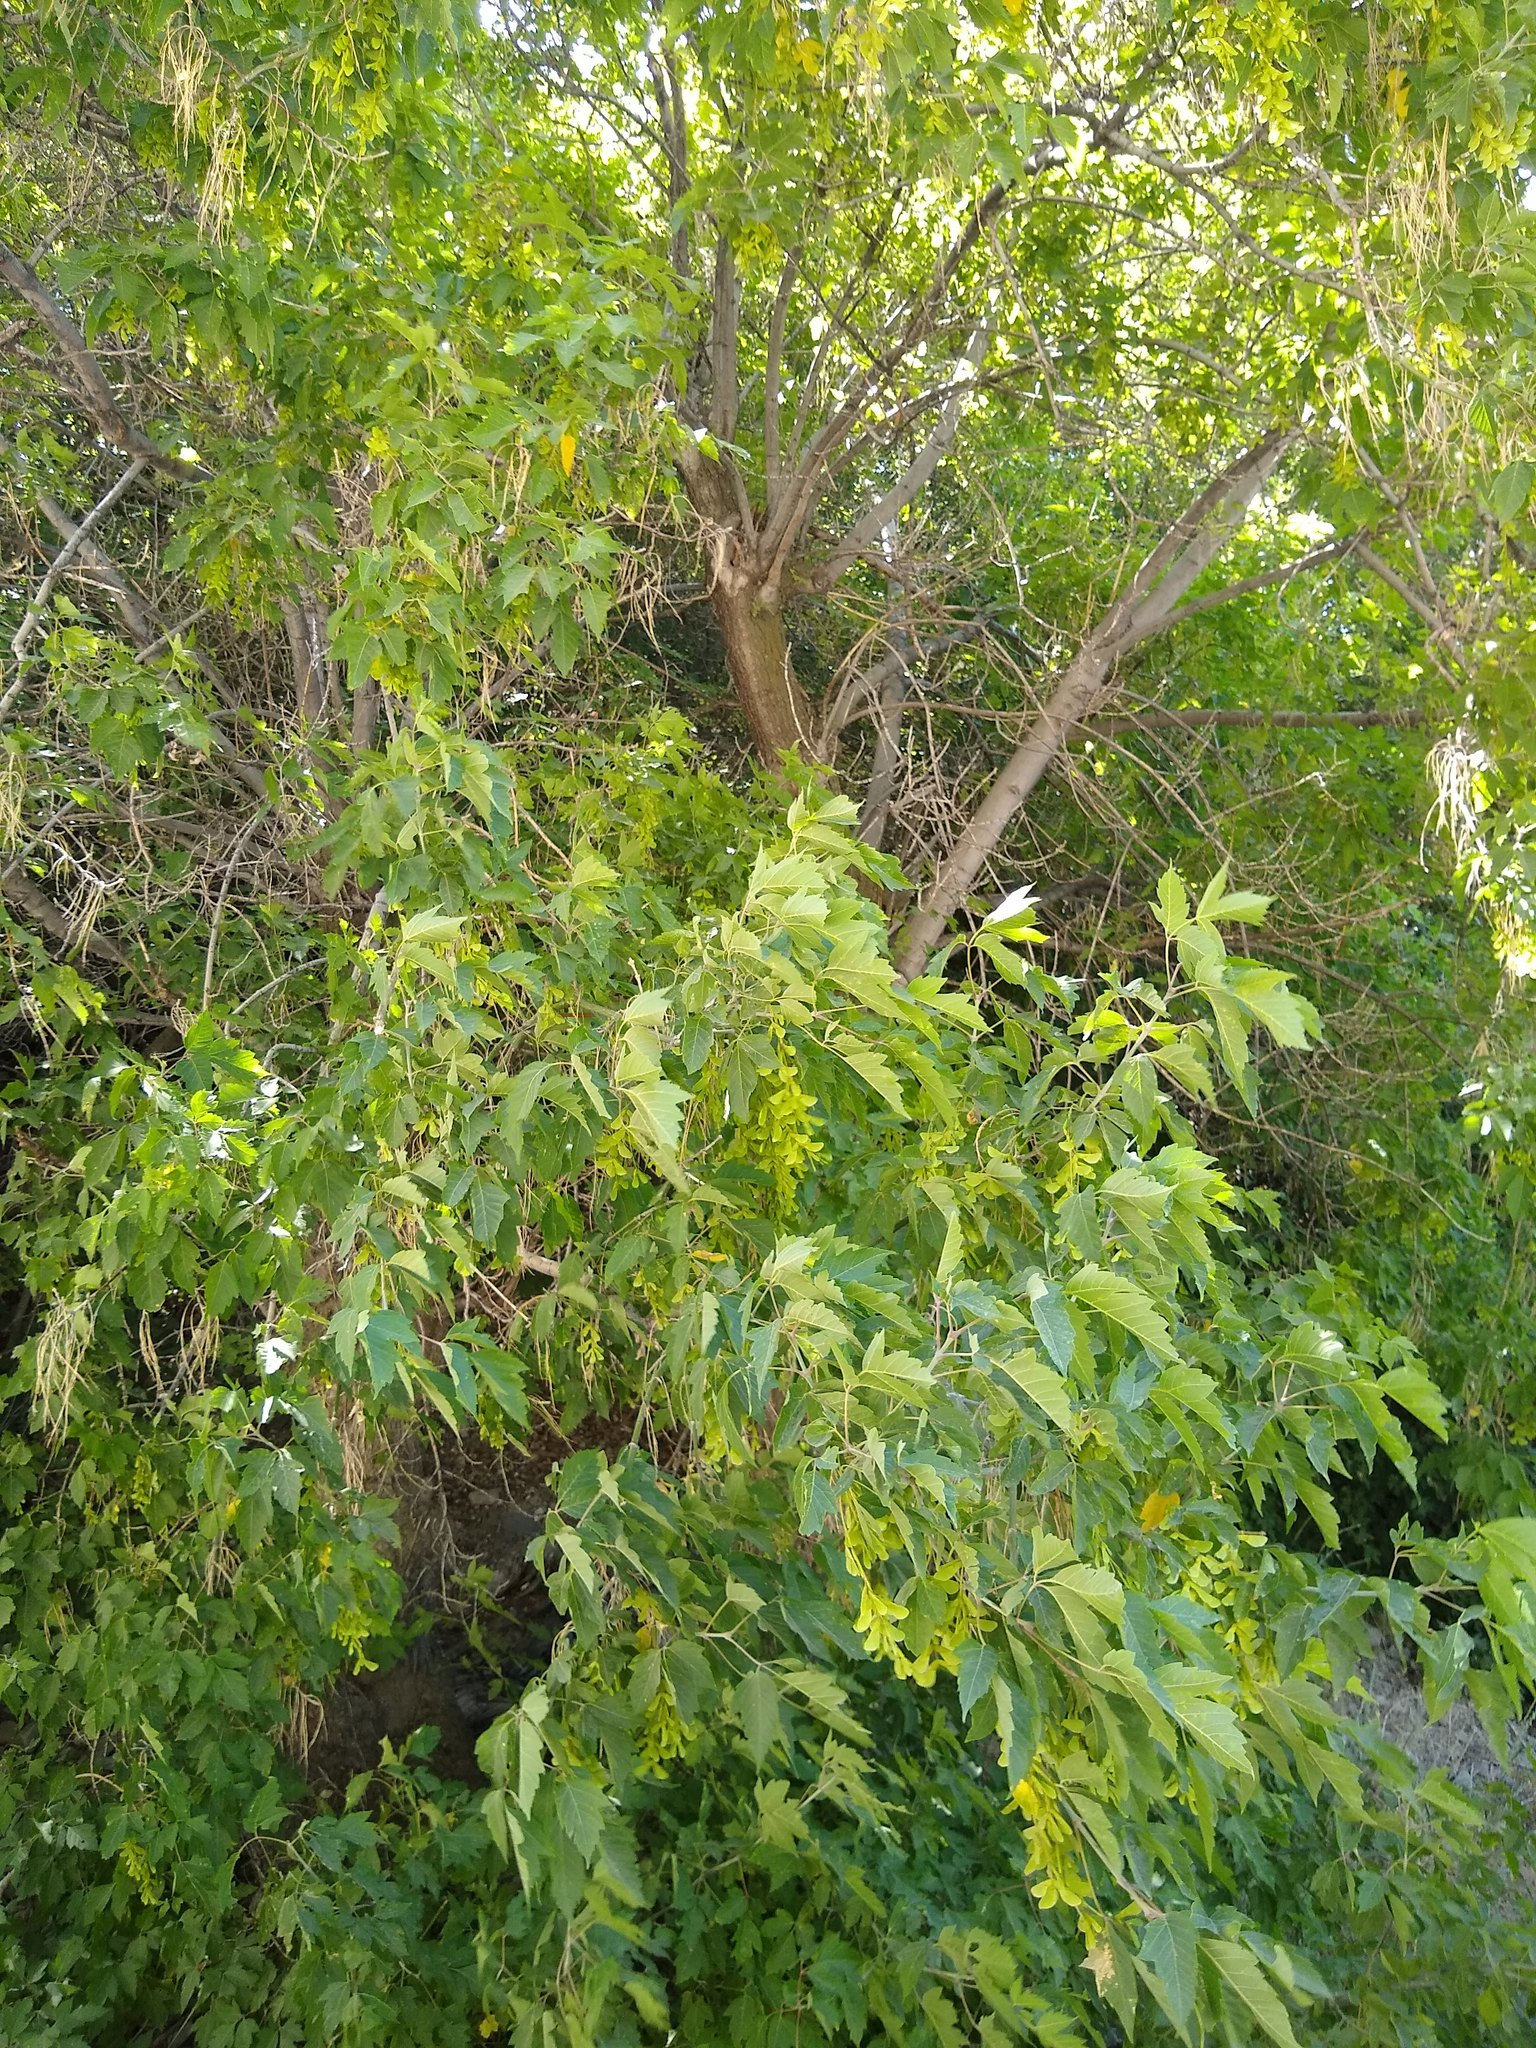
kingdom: Plantae
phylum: Tracheophyta
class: Magnoliopsida
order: Sapindales
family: Sapindaceae
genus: Acer
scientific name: Acer negundo
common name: Ashleaf maple
